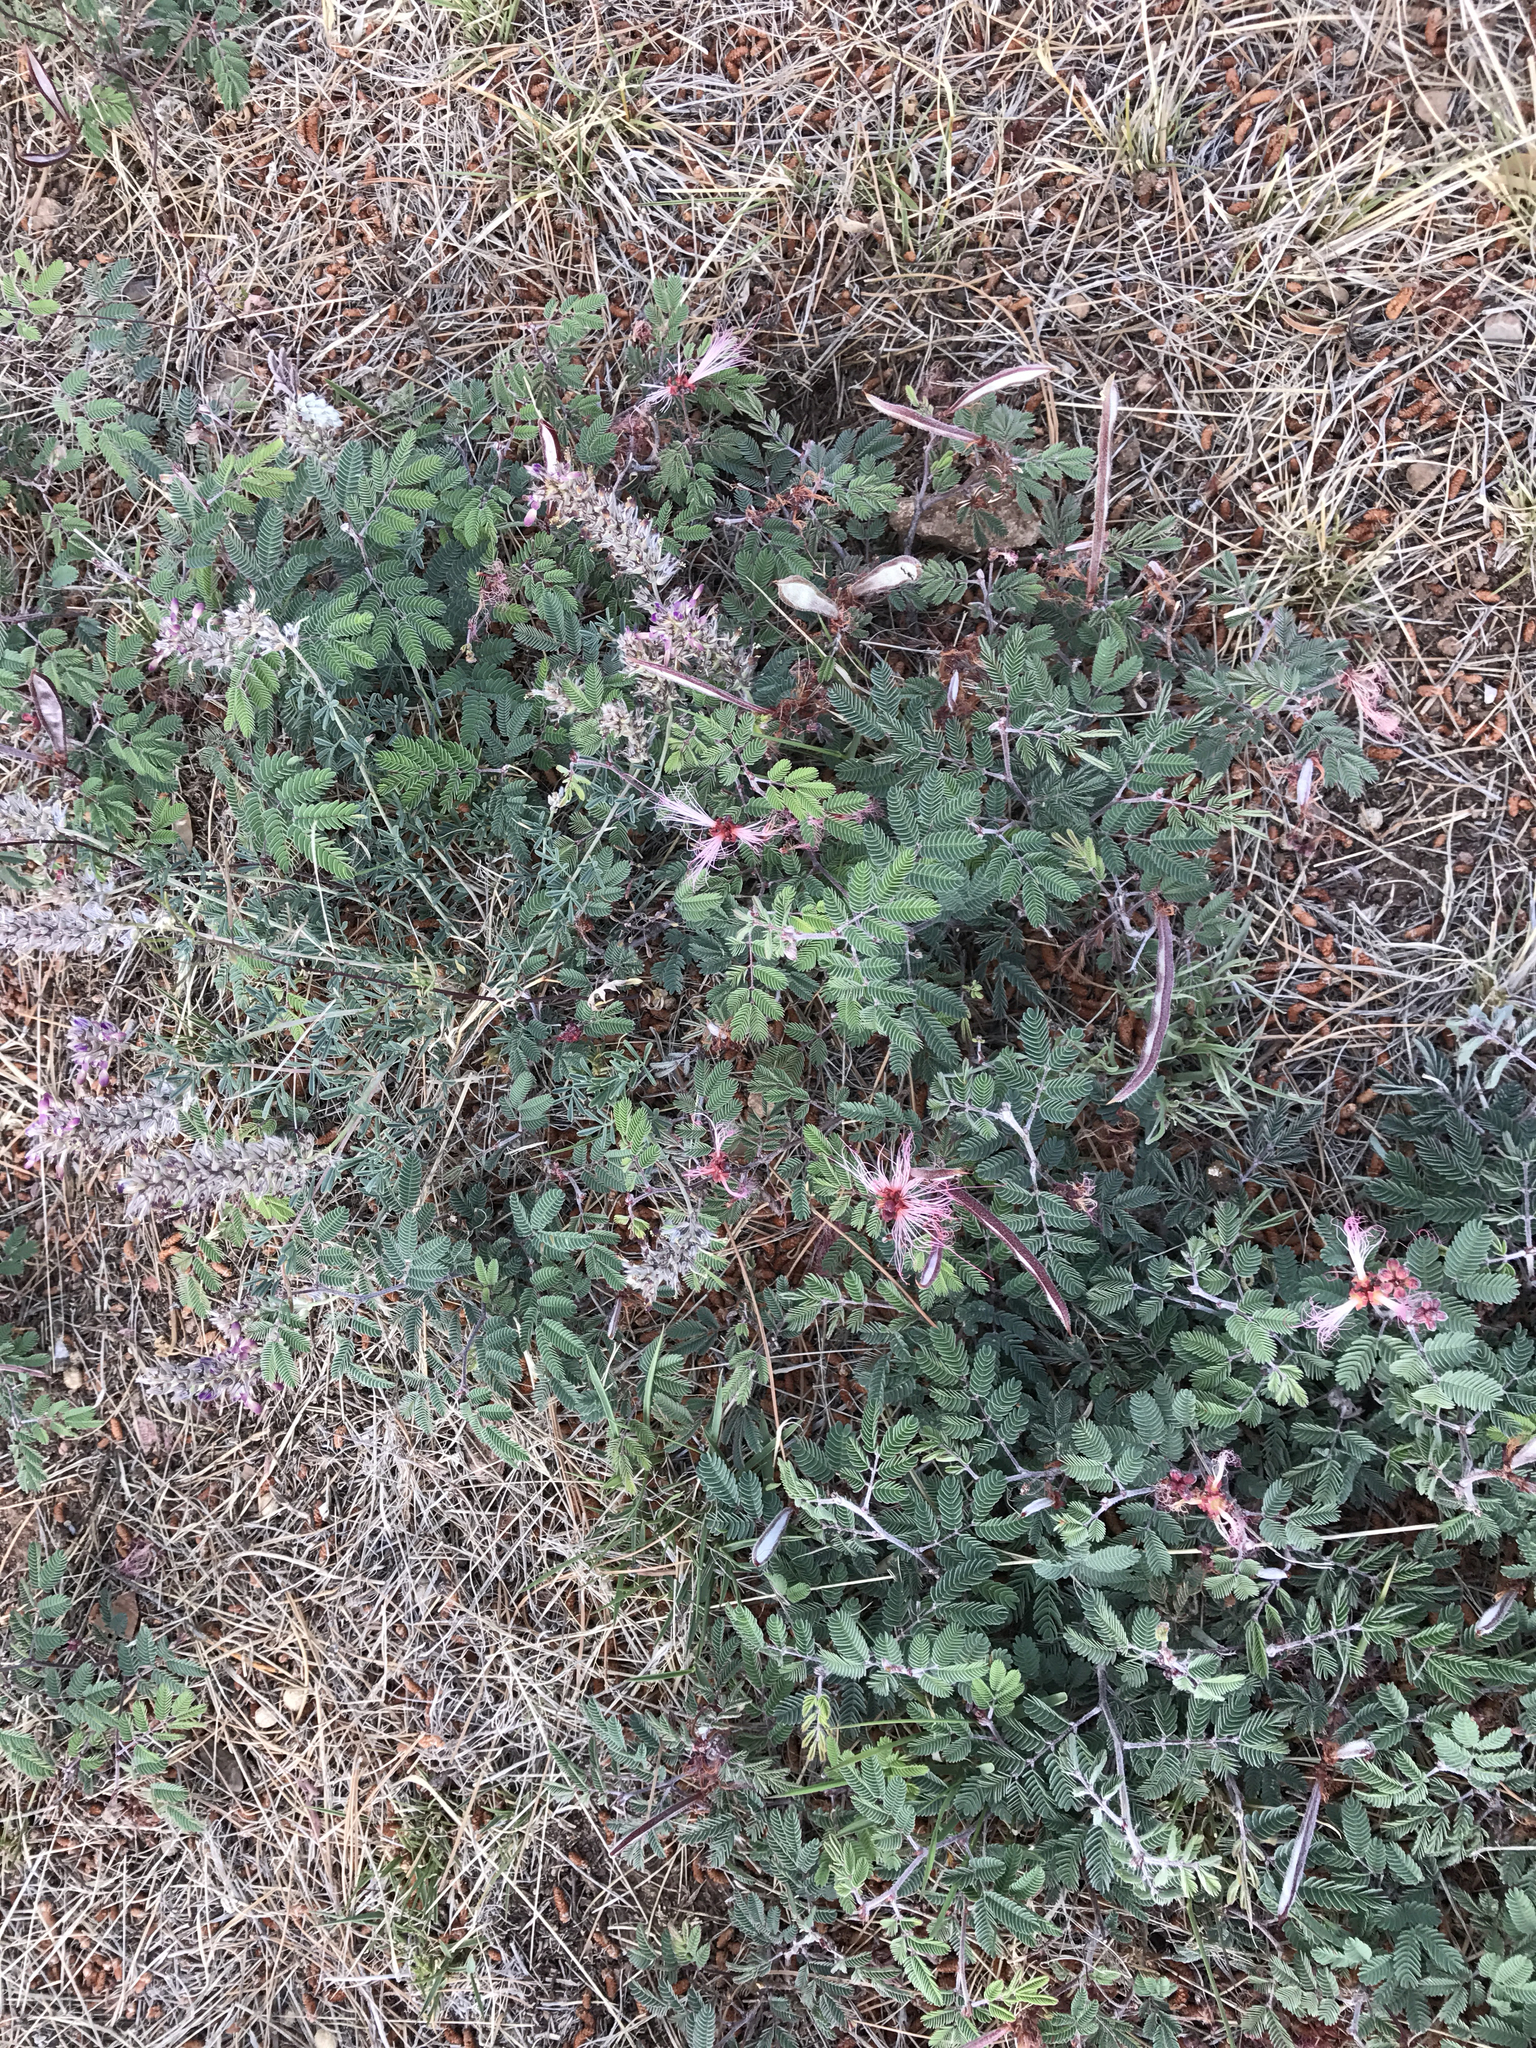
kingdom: Plantae
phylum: Tracheophyta
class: Magnoliopsida
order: Fabales
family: Fabaceae
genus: Calliandra
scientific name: Calliandra eriophylla
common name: Fairy-duster
